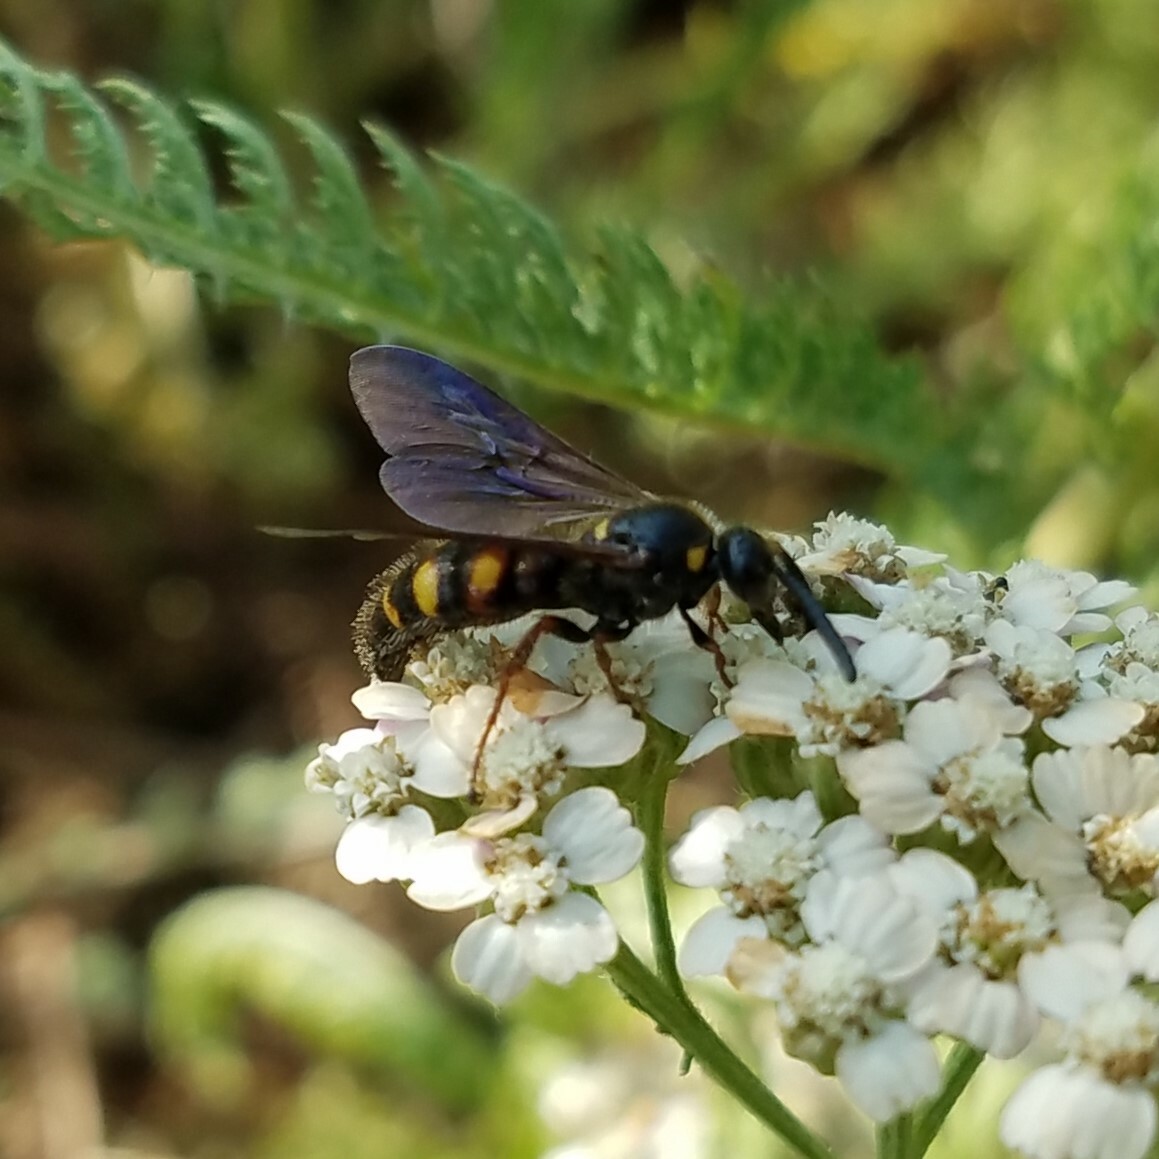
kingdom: Animalia
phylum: Arthropoda
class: Insecta
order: Hymenoptera
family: Scoliidae
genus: Scolia
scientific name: Scolia nobilitata
